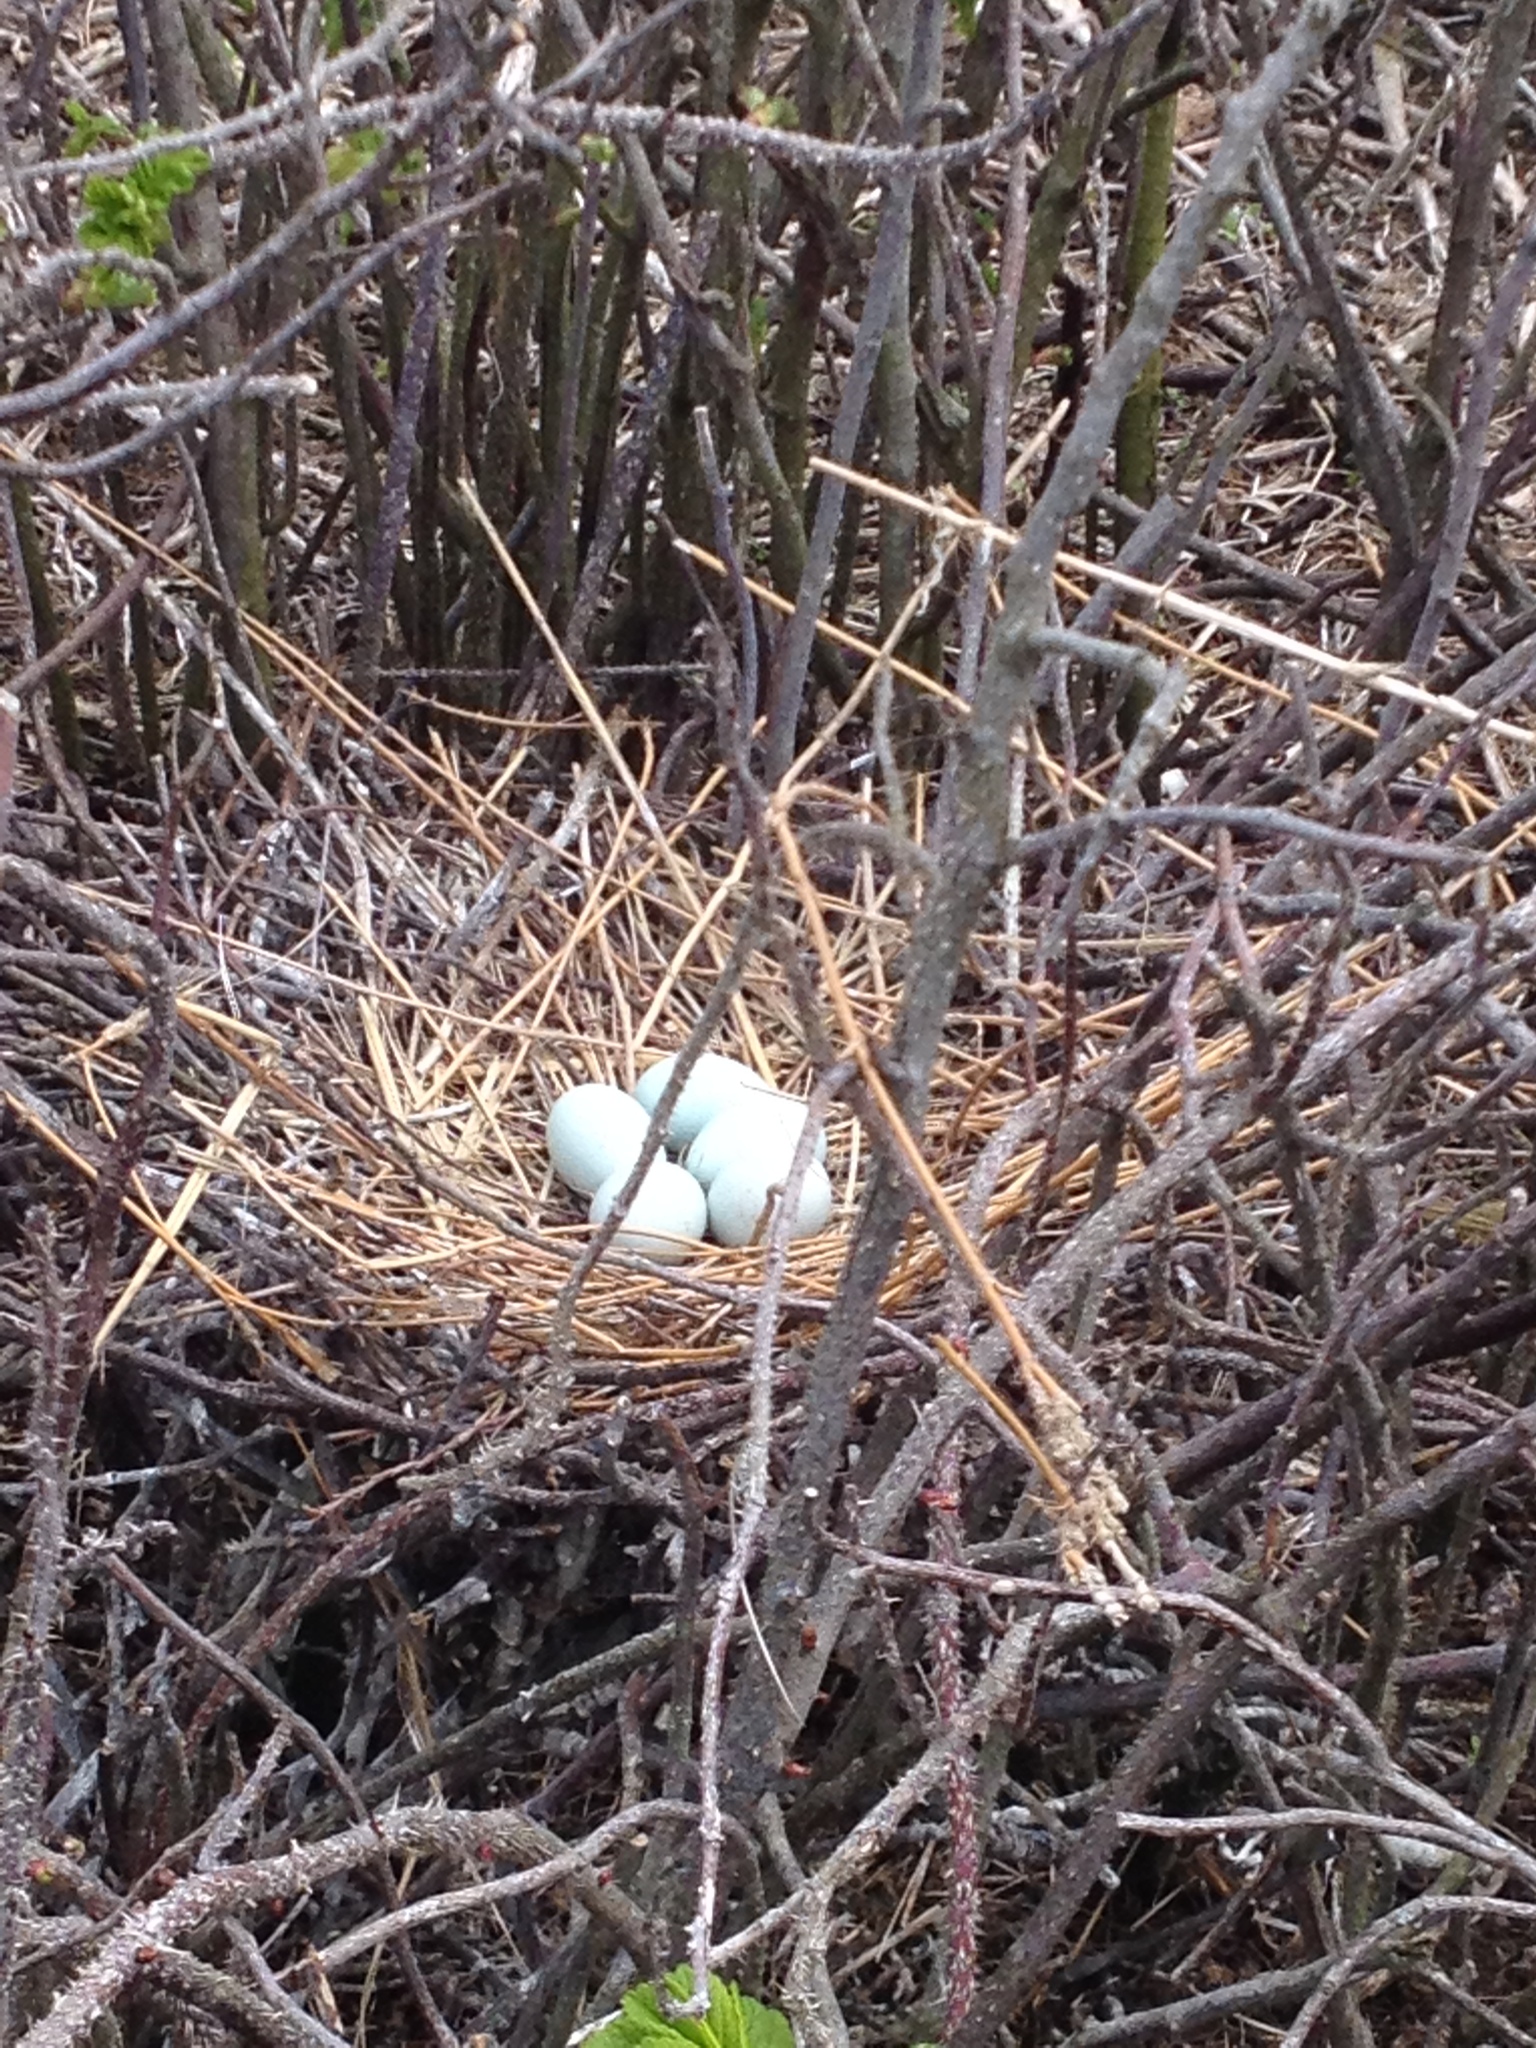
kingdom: Animalia
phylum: Chordata
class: Aves
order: Pelecaniformes
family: Ardeidae
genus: Nycticorax
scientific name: Nycticorax nycticorax
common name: Black-crowned night heron
